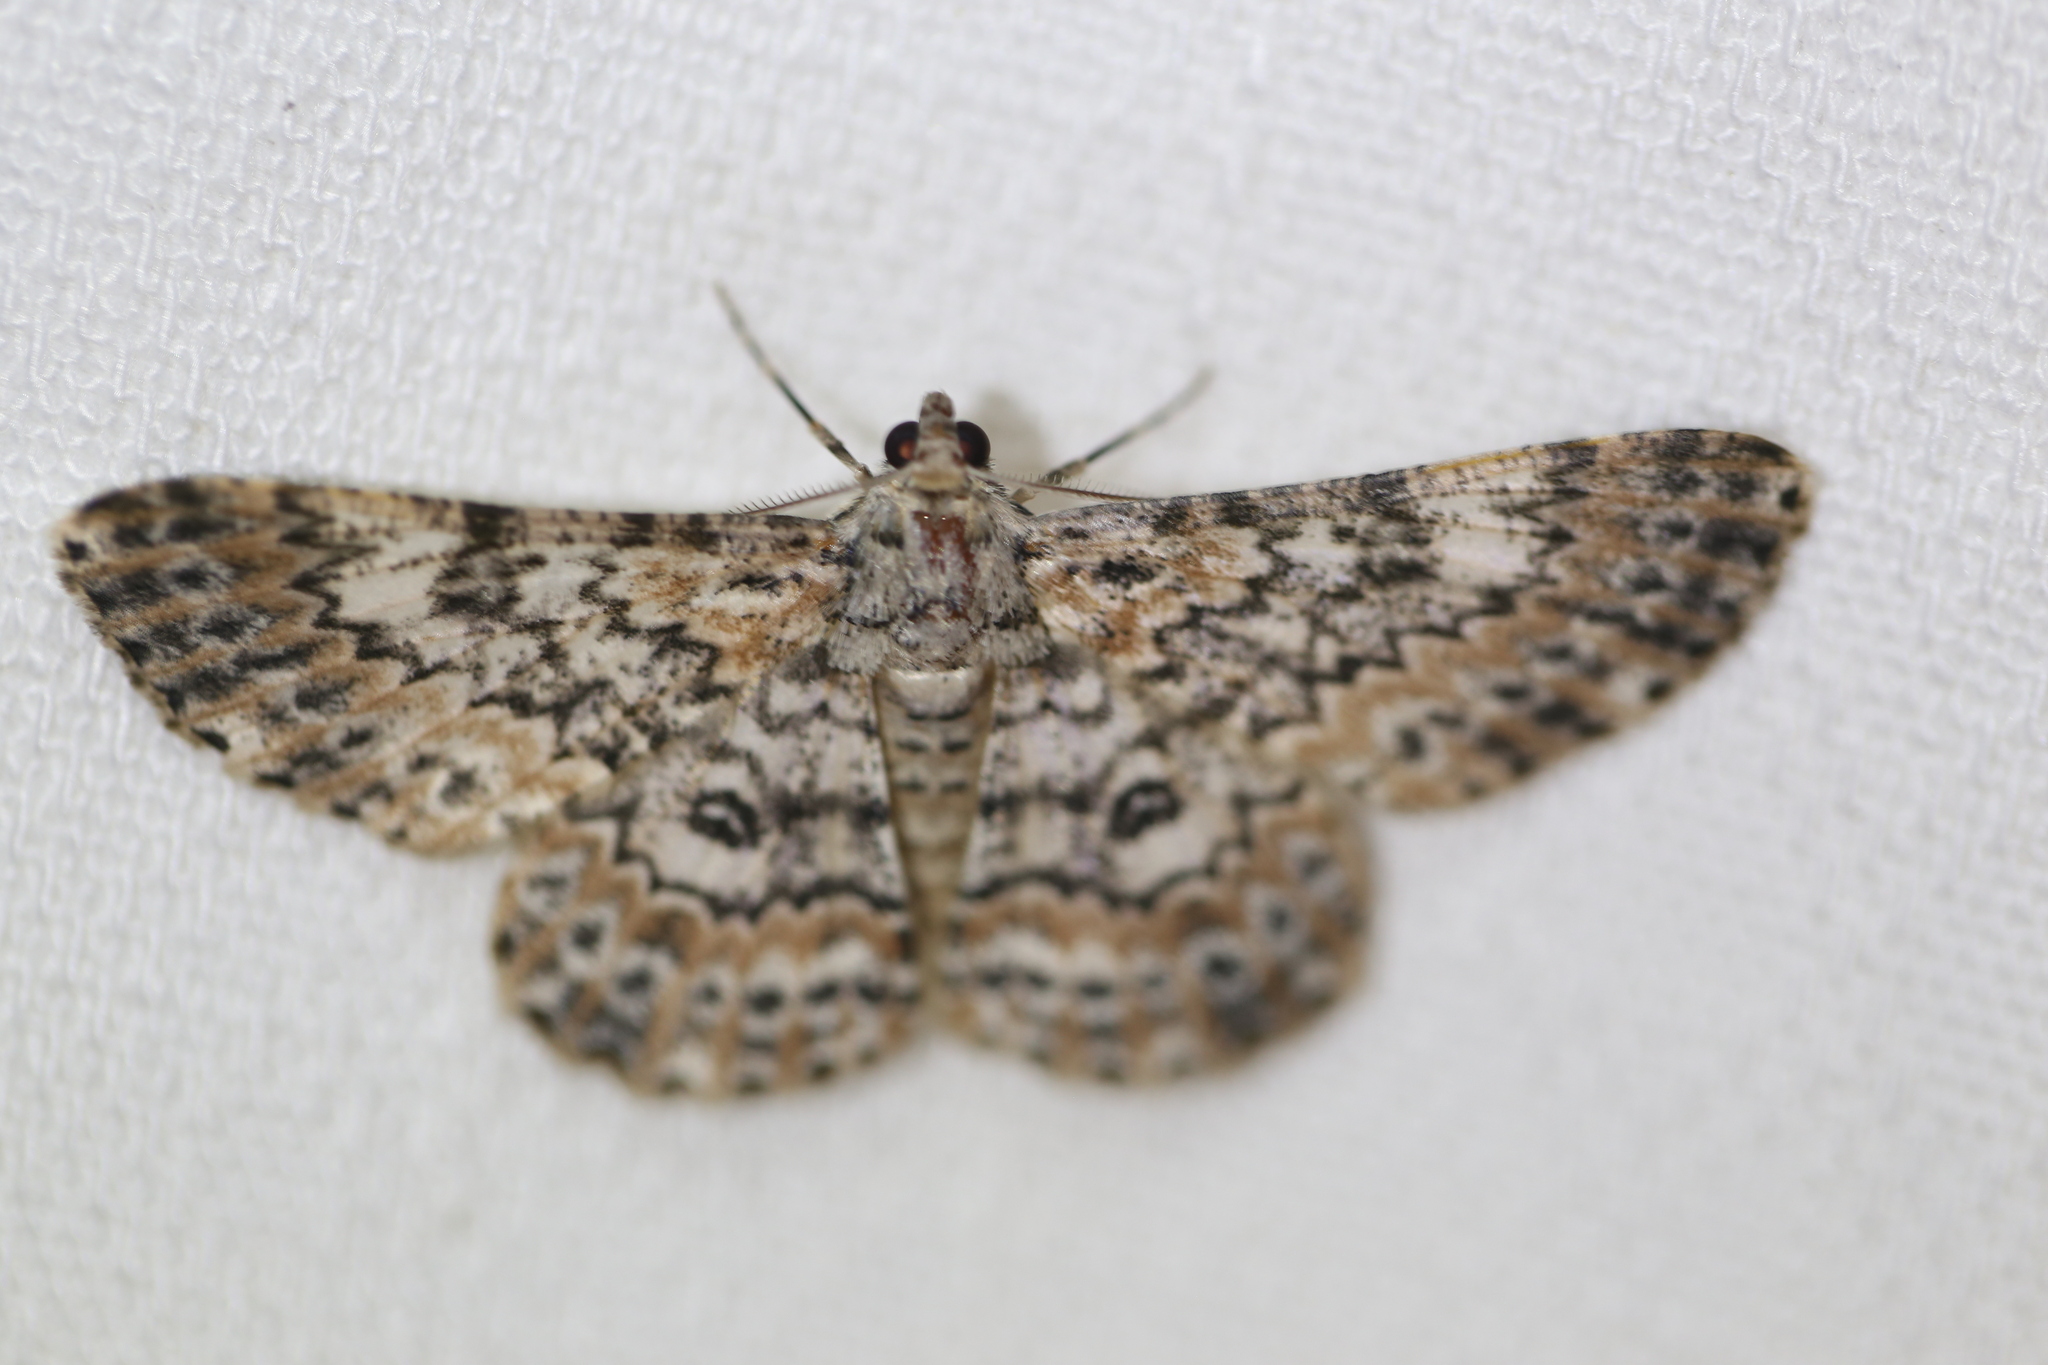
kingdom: Animalia
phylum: Arthropoda
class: Insecta
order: Lepidoptera
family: Geometridae
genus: Cleora
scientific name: Cleora sabulata
